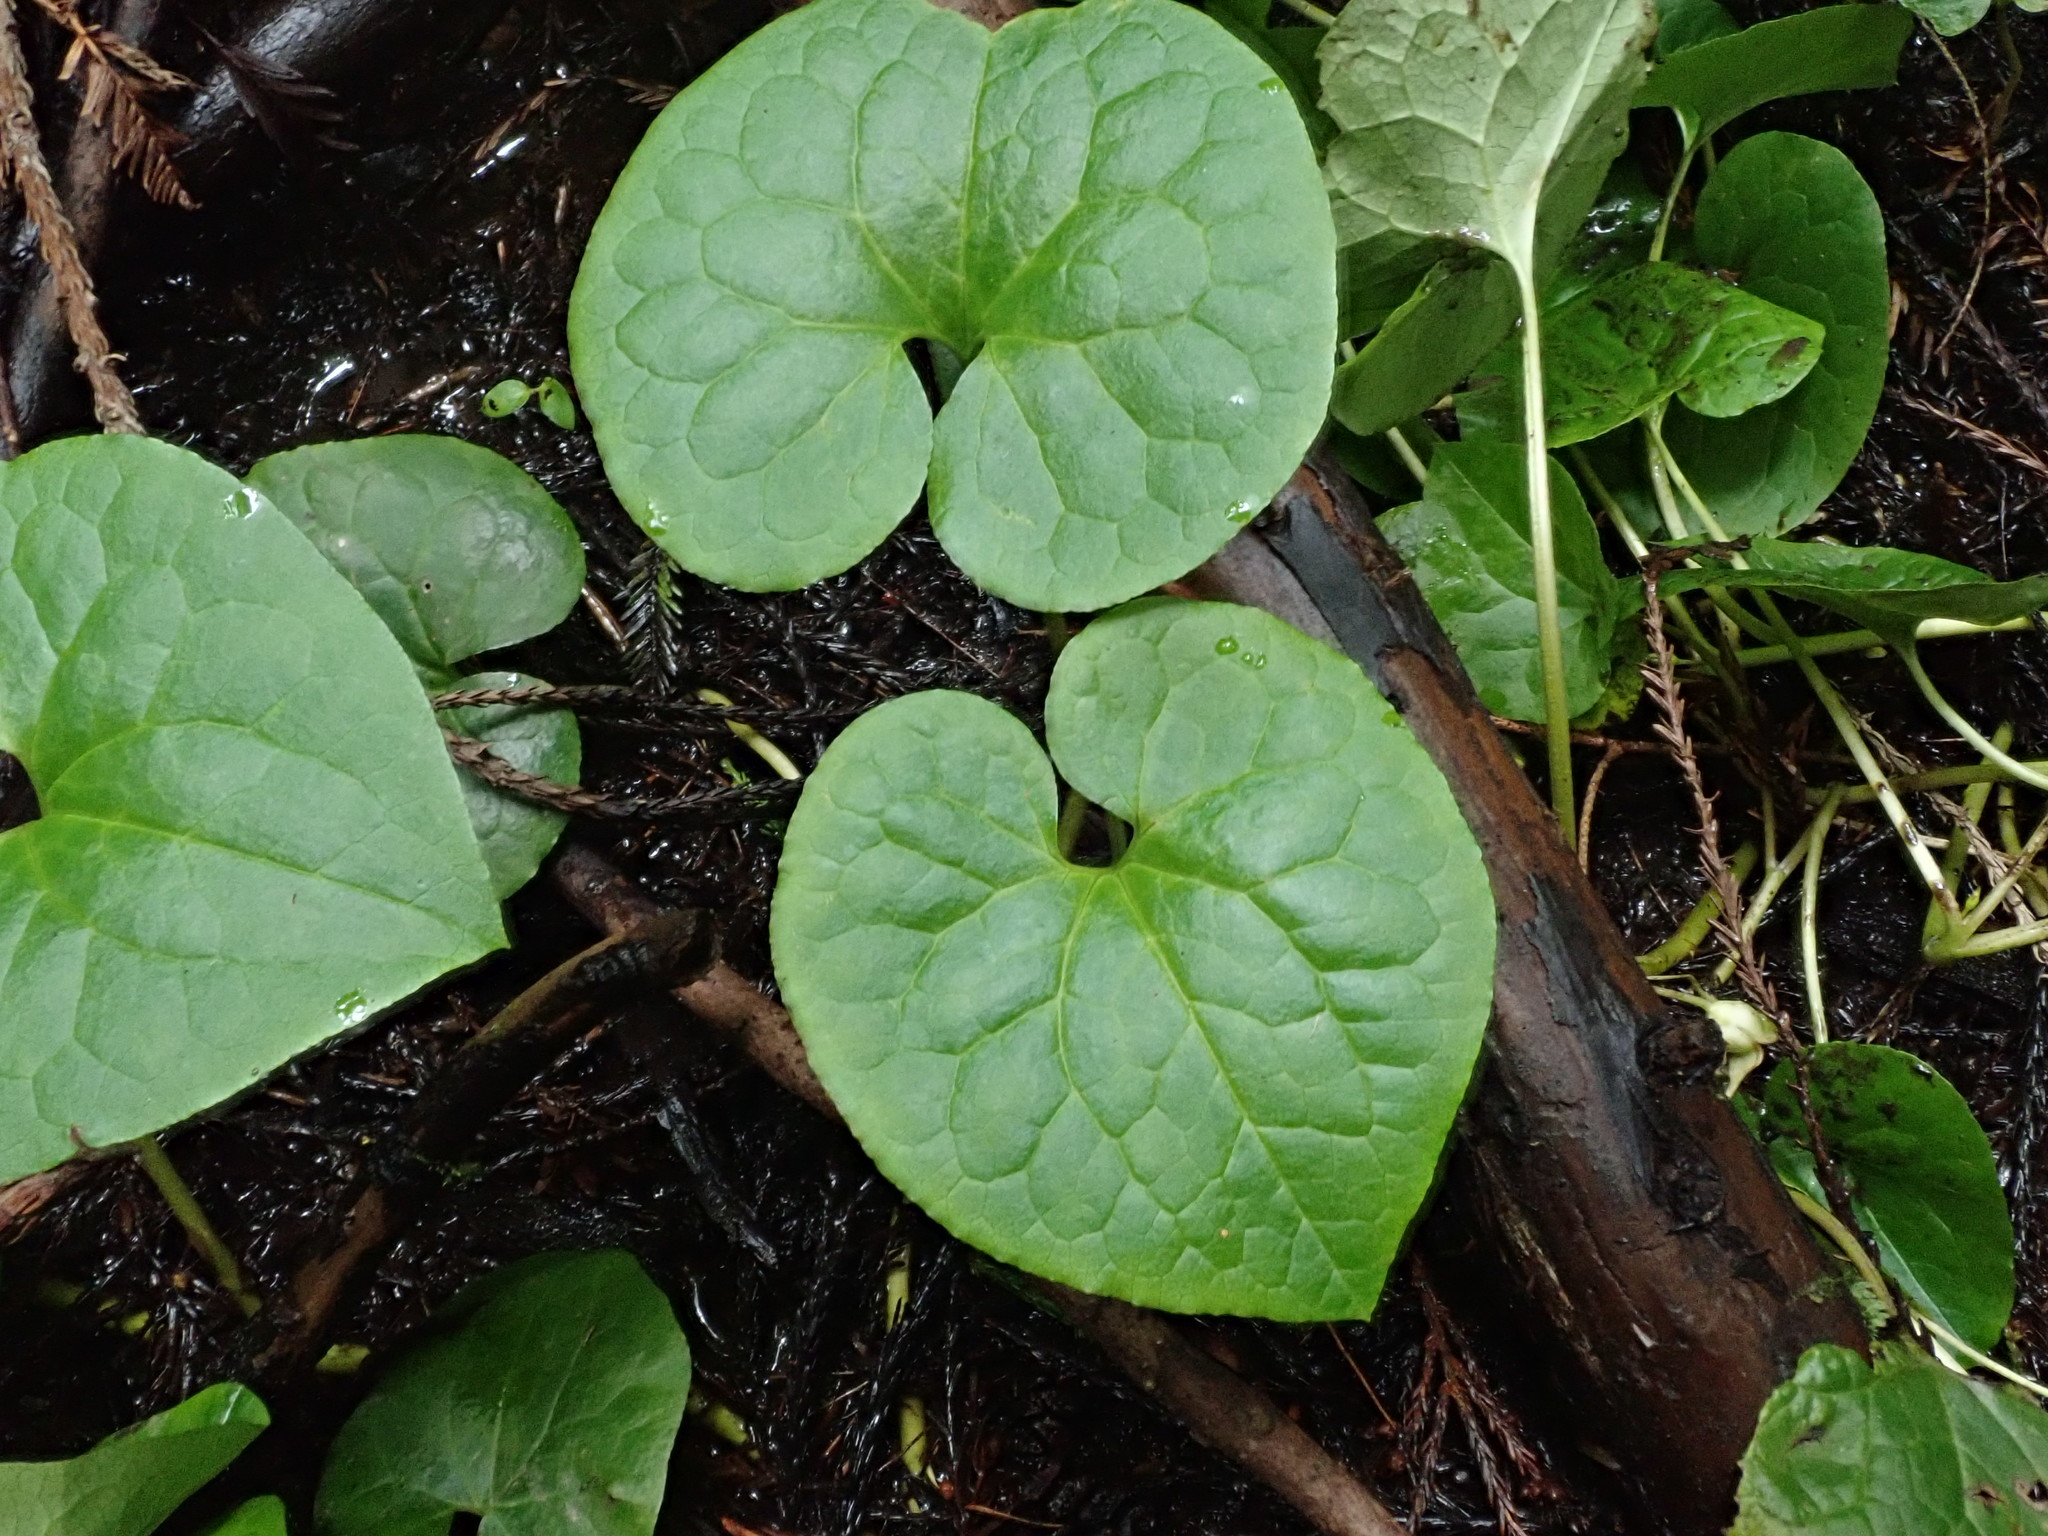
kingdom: Plantae
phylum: Tracheophyta
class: Magnoliopsida
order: Piperales
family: Aristolochiaceae
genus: Asarum
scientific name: Asarum caudatum
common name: Wild ginger
